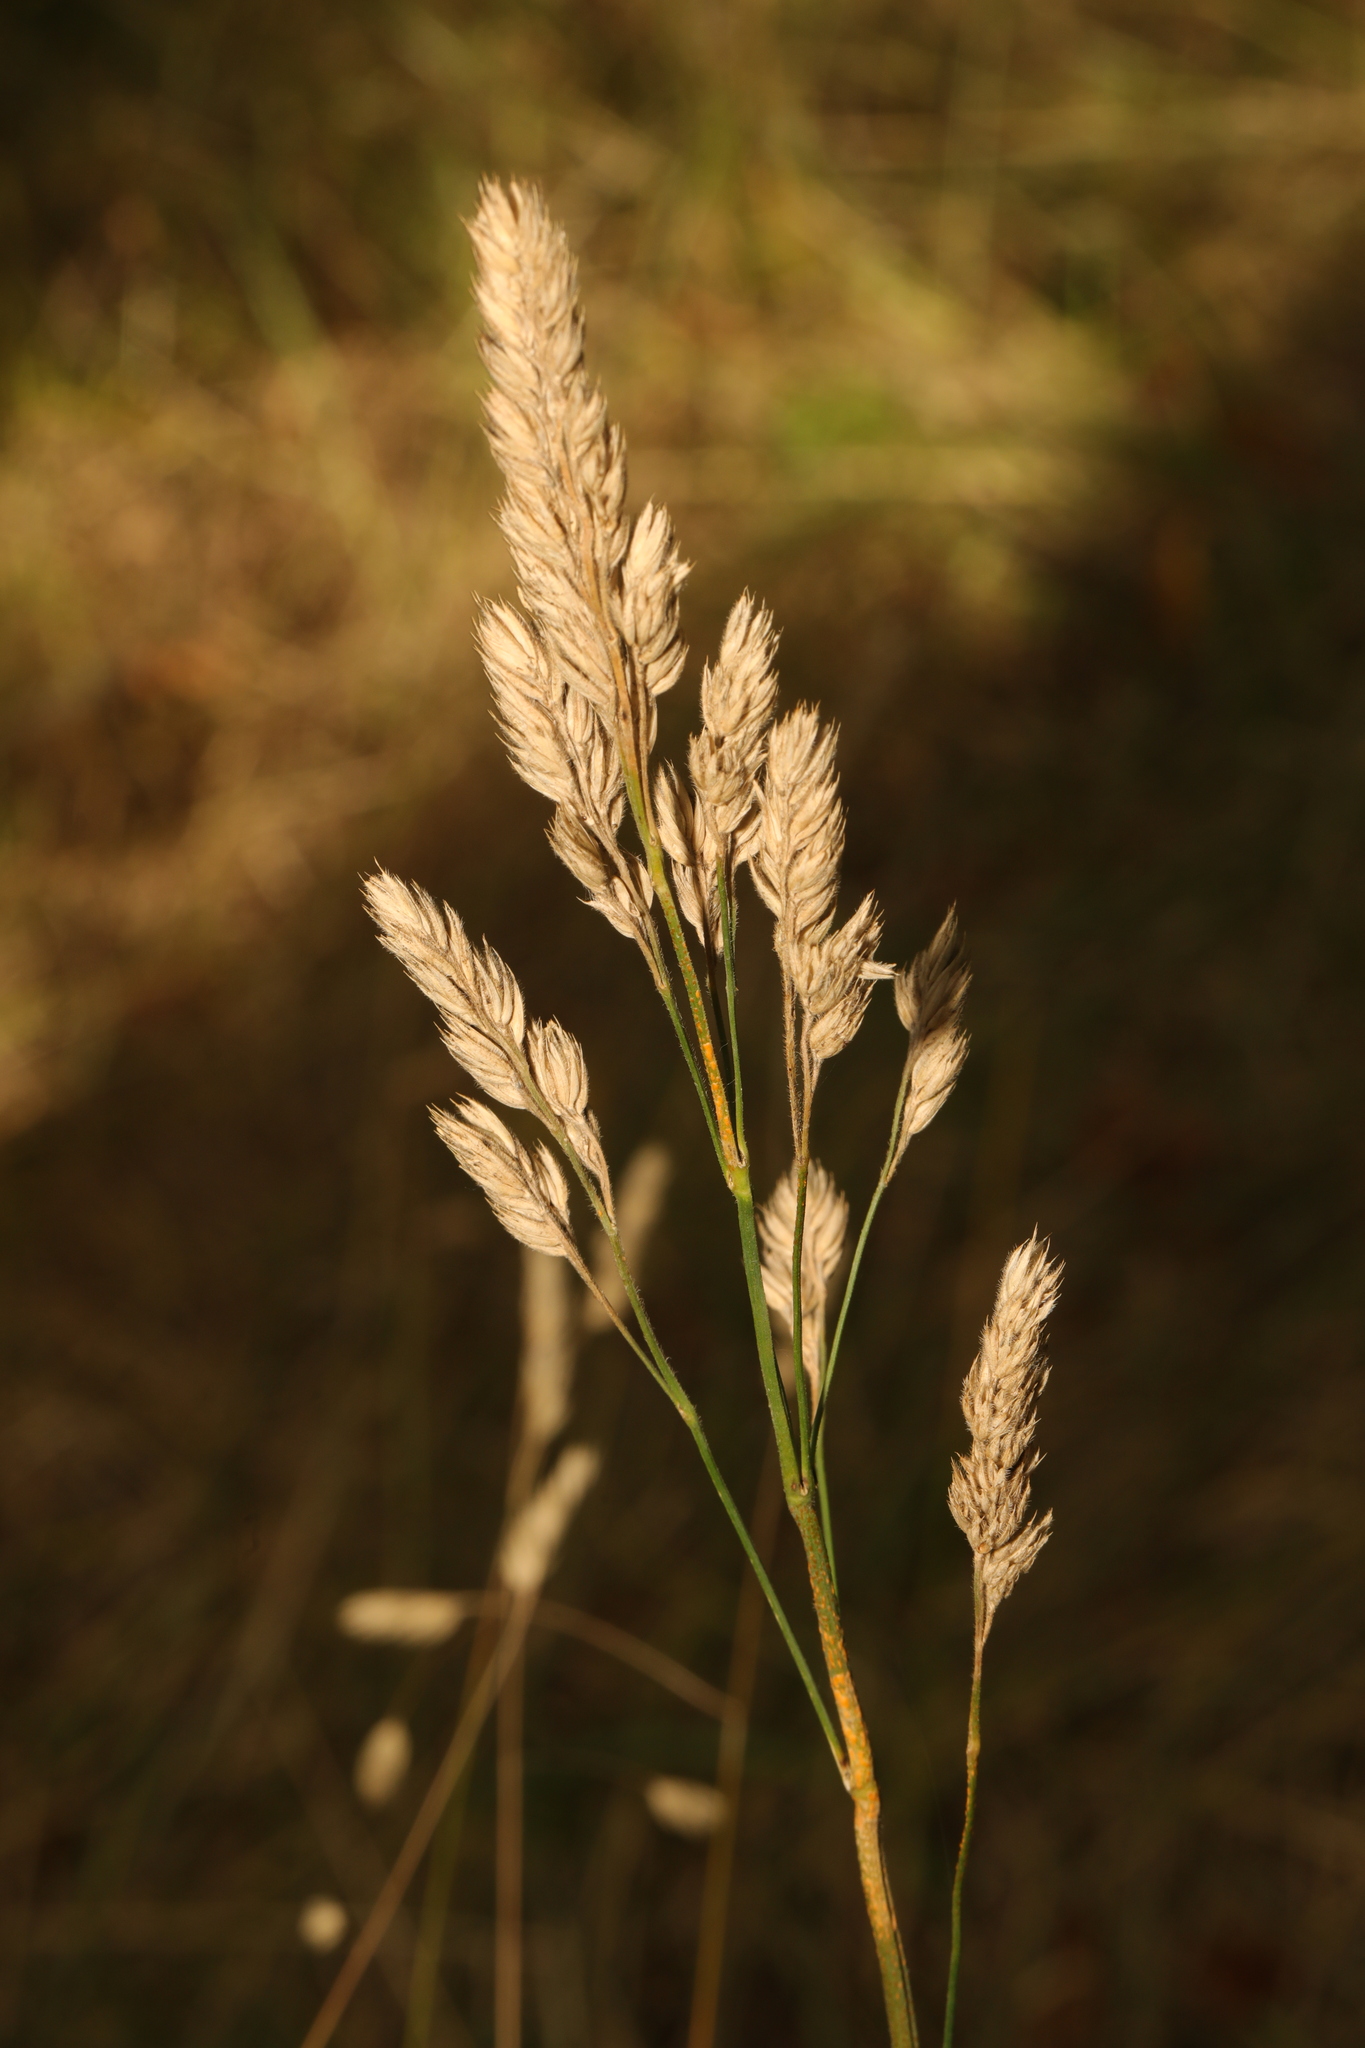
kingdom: Plantae
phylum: Tracheophyta
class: Liliopsida
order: Poales
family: Poaceae
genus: Dactylis
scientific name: Dactylis glomerata
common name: Orchardgrass
